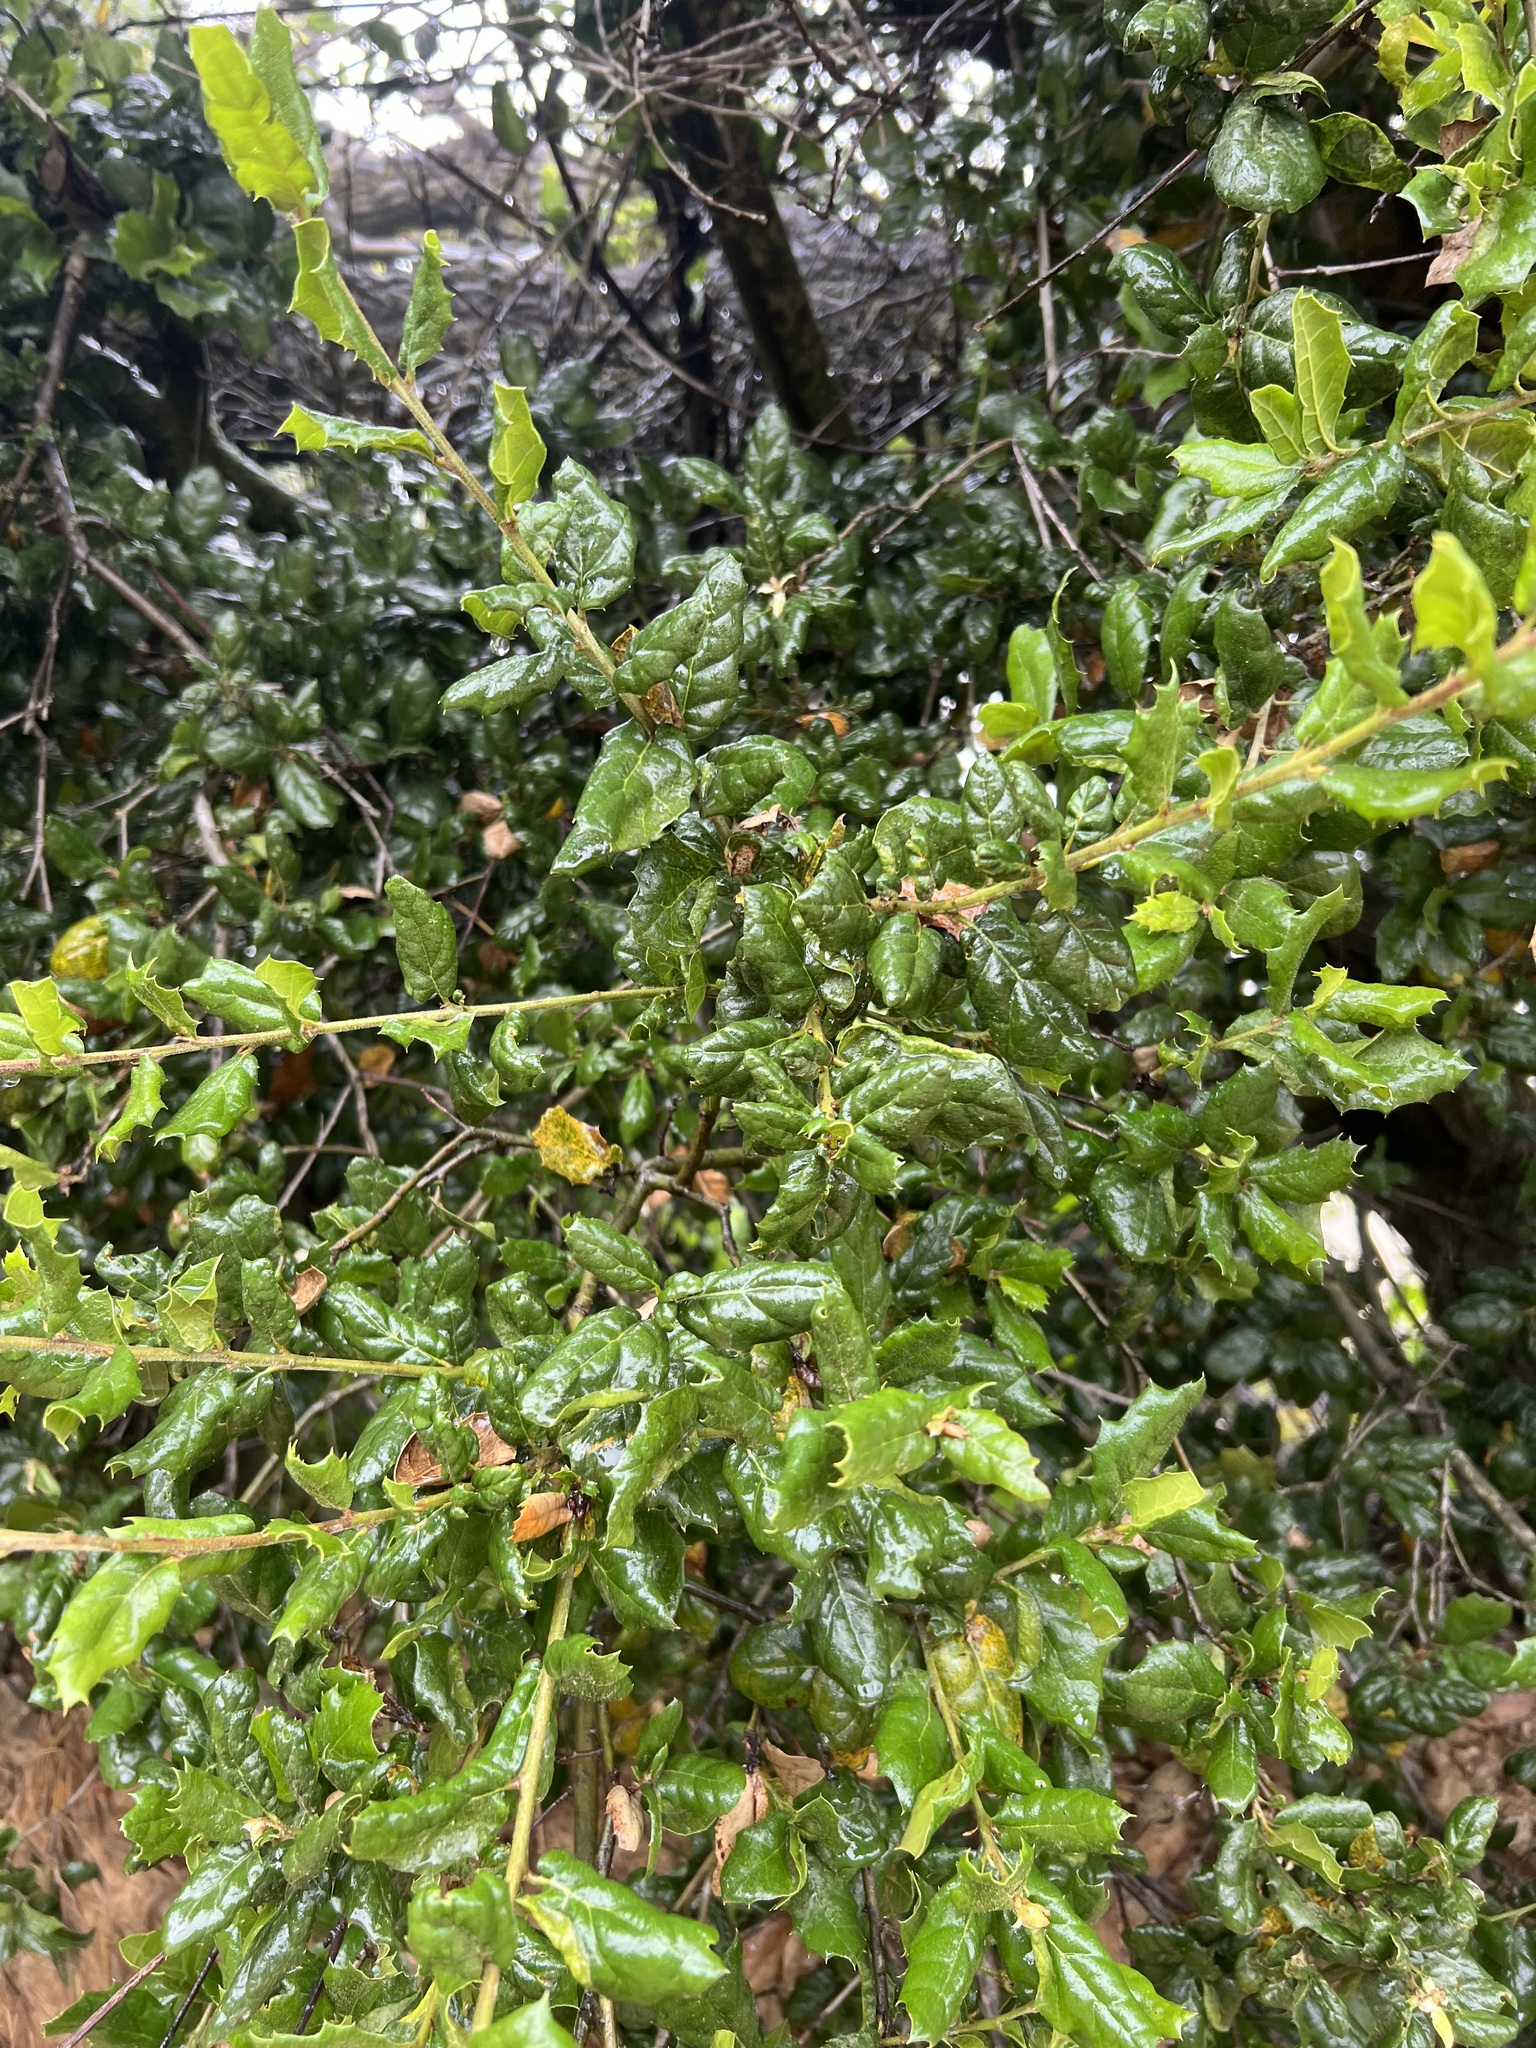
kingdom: Plantae
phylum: Tracheophyta
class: Magnoliopsida
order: Fagales
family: Fagaceae
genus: Quercus
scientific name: Quercus agrifolia
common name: California live oak
